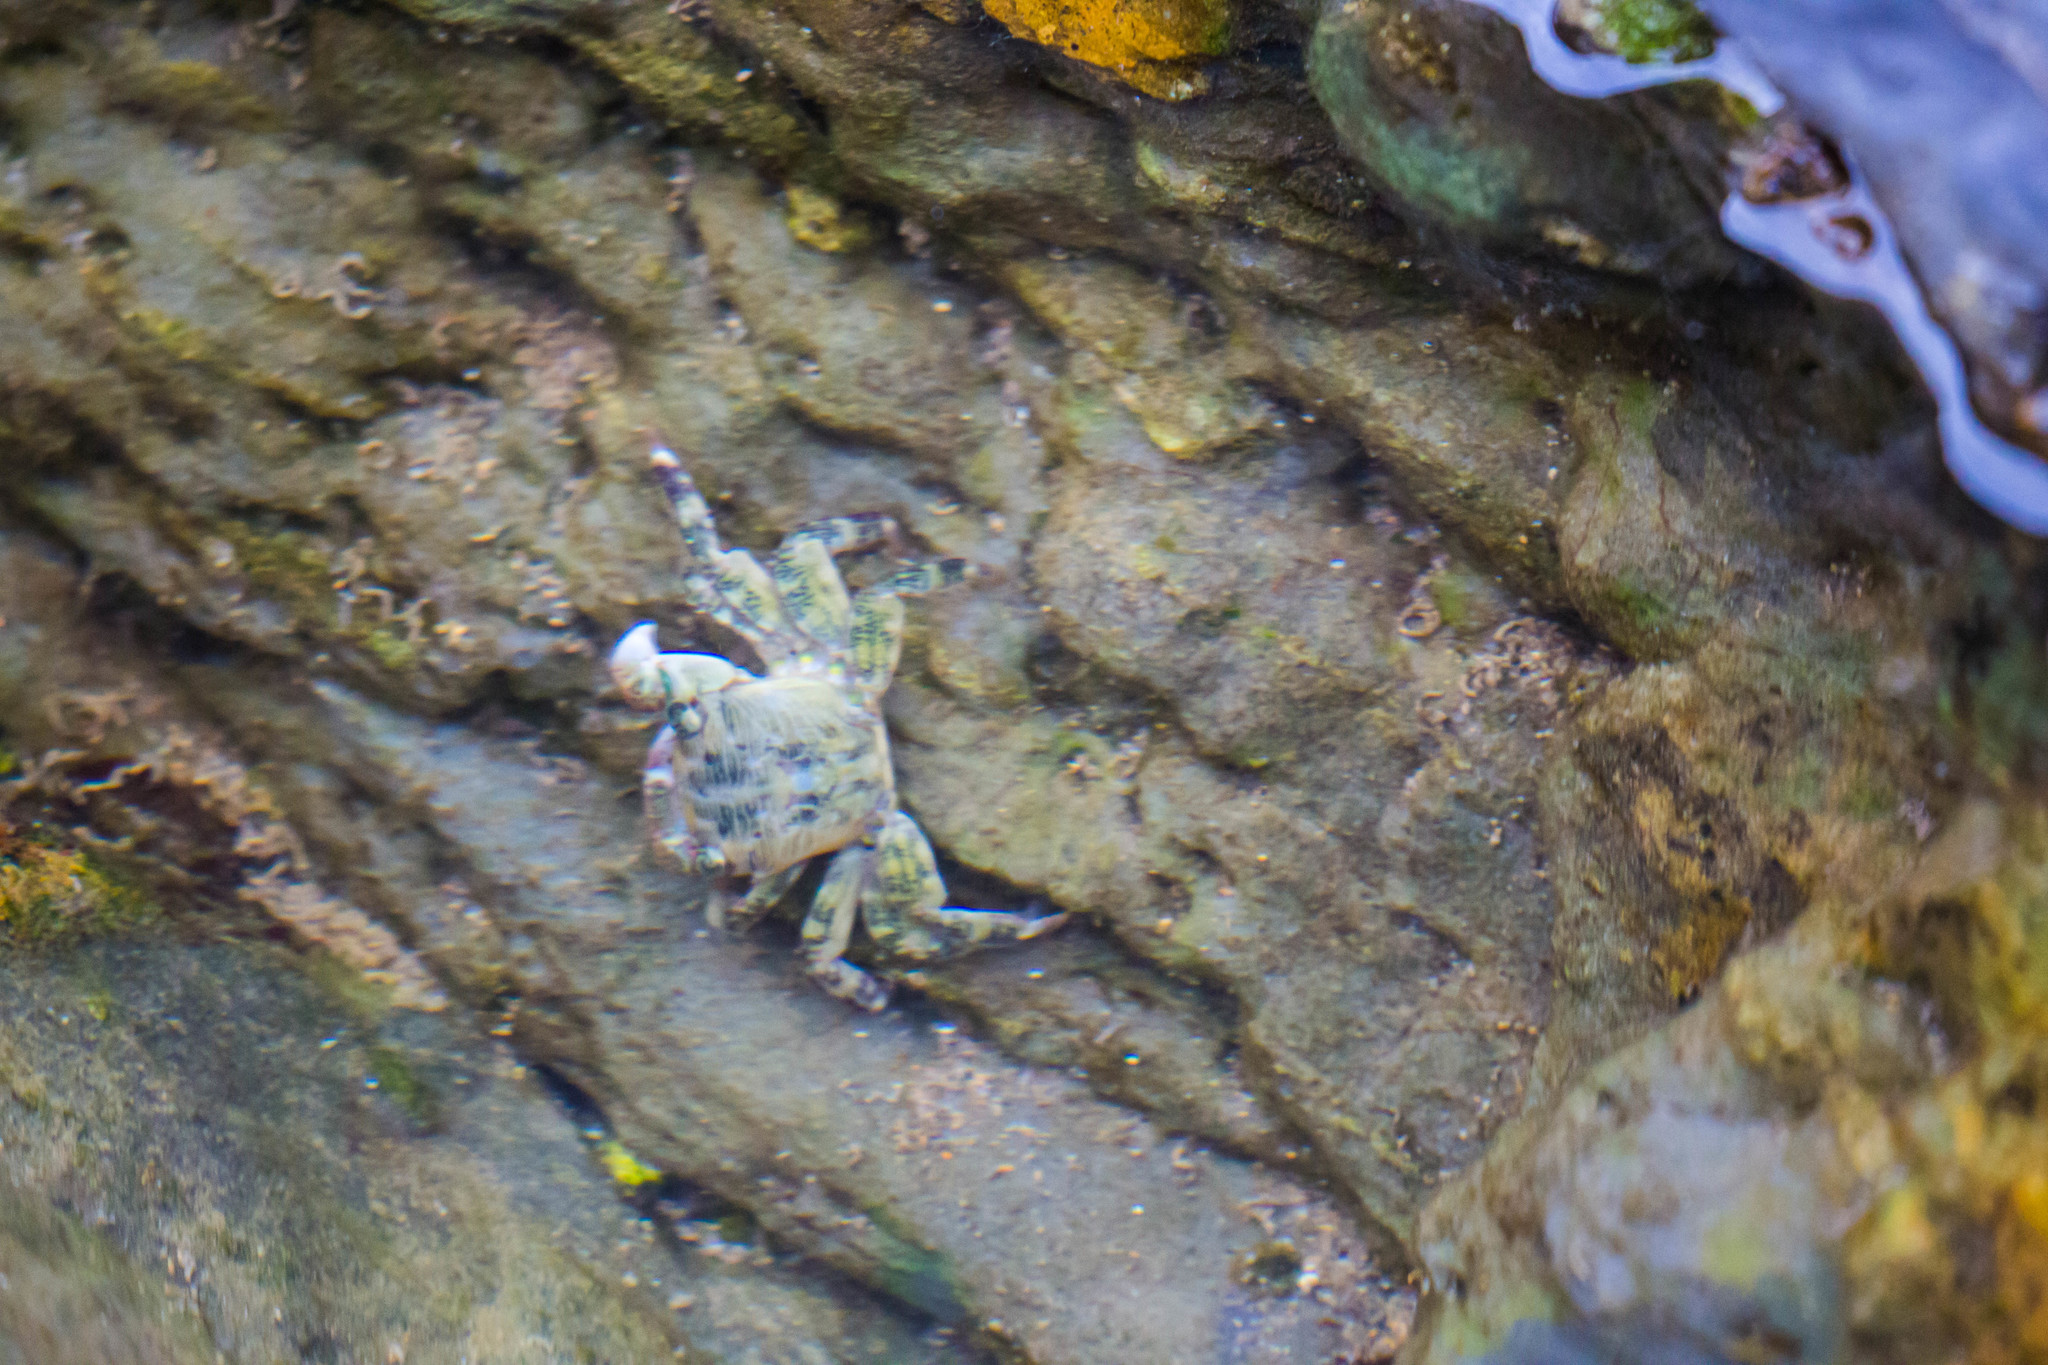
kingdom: Animalia
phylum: Arthropoda
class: Malacostraca
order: Decapoda
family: Grapsidae
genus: Pachygrapsus
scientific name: Pachygrapsus crassipes
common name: Striped shore crab
